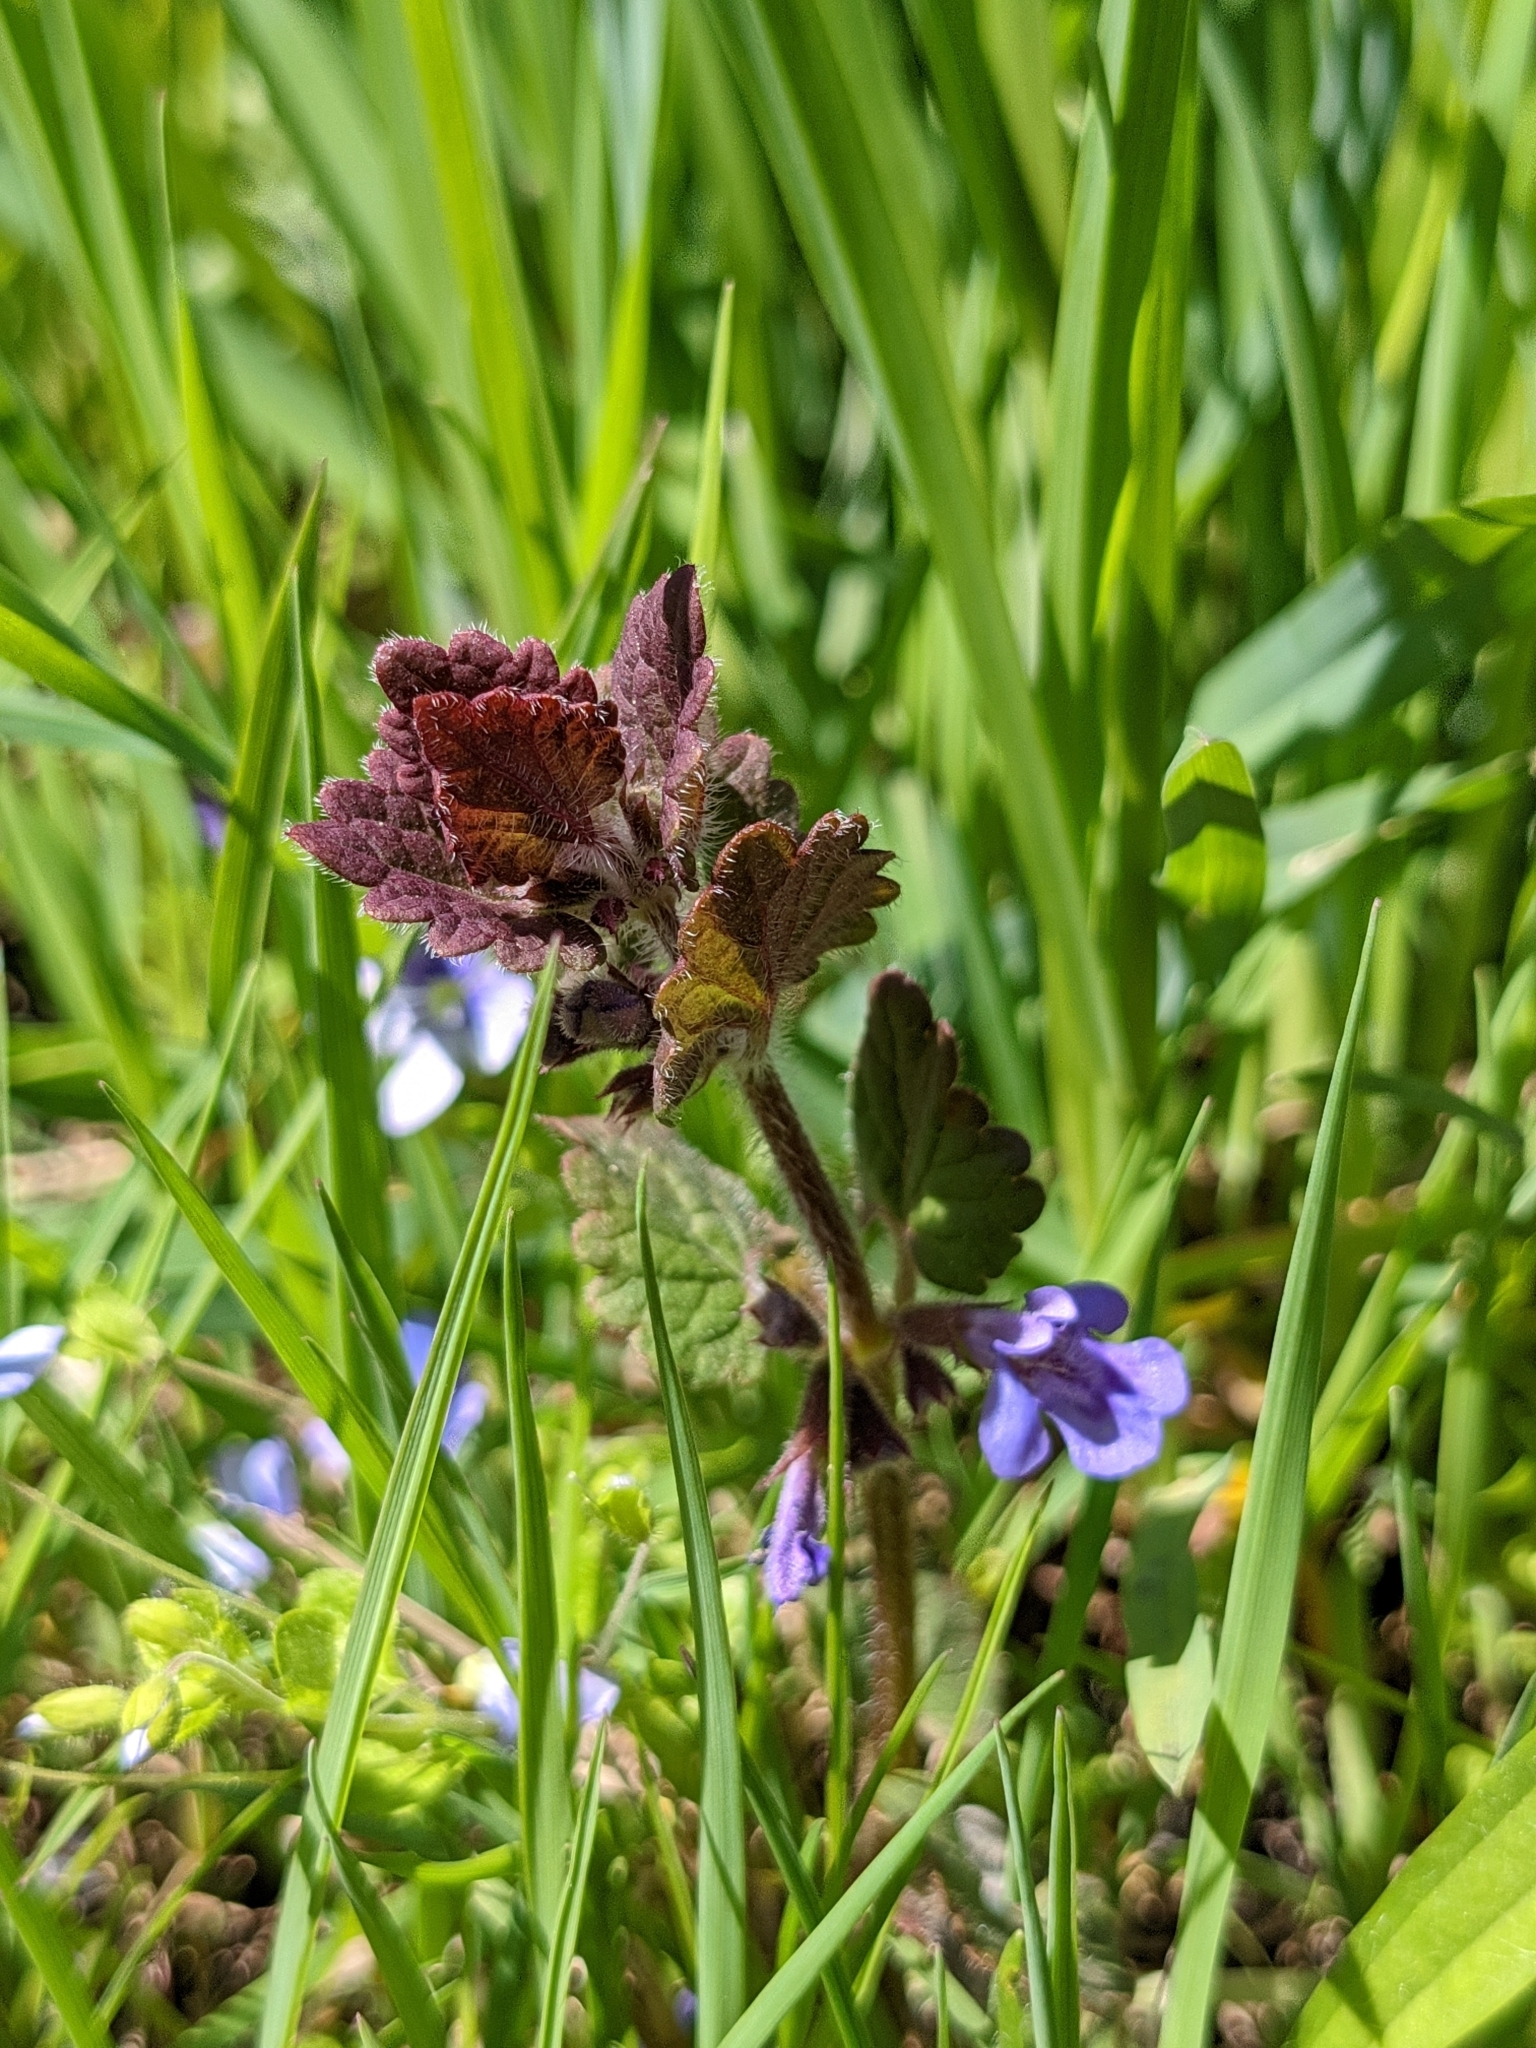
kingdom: Plantae
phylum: Tracheophyta
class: Magnoliopsida
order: Lamiales
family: Lamiaceae
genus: Glechoma
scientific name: Glechoma hederacea
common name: Ground ivy
